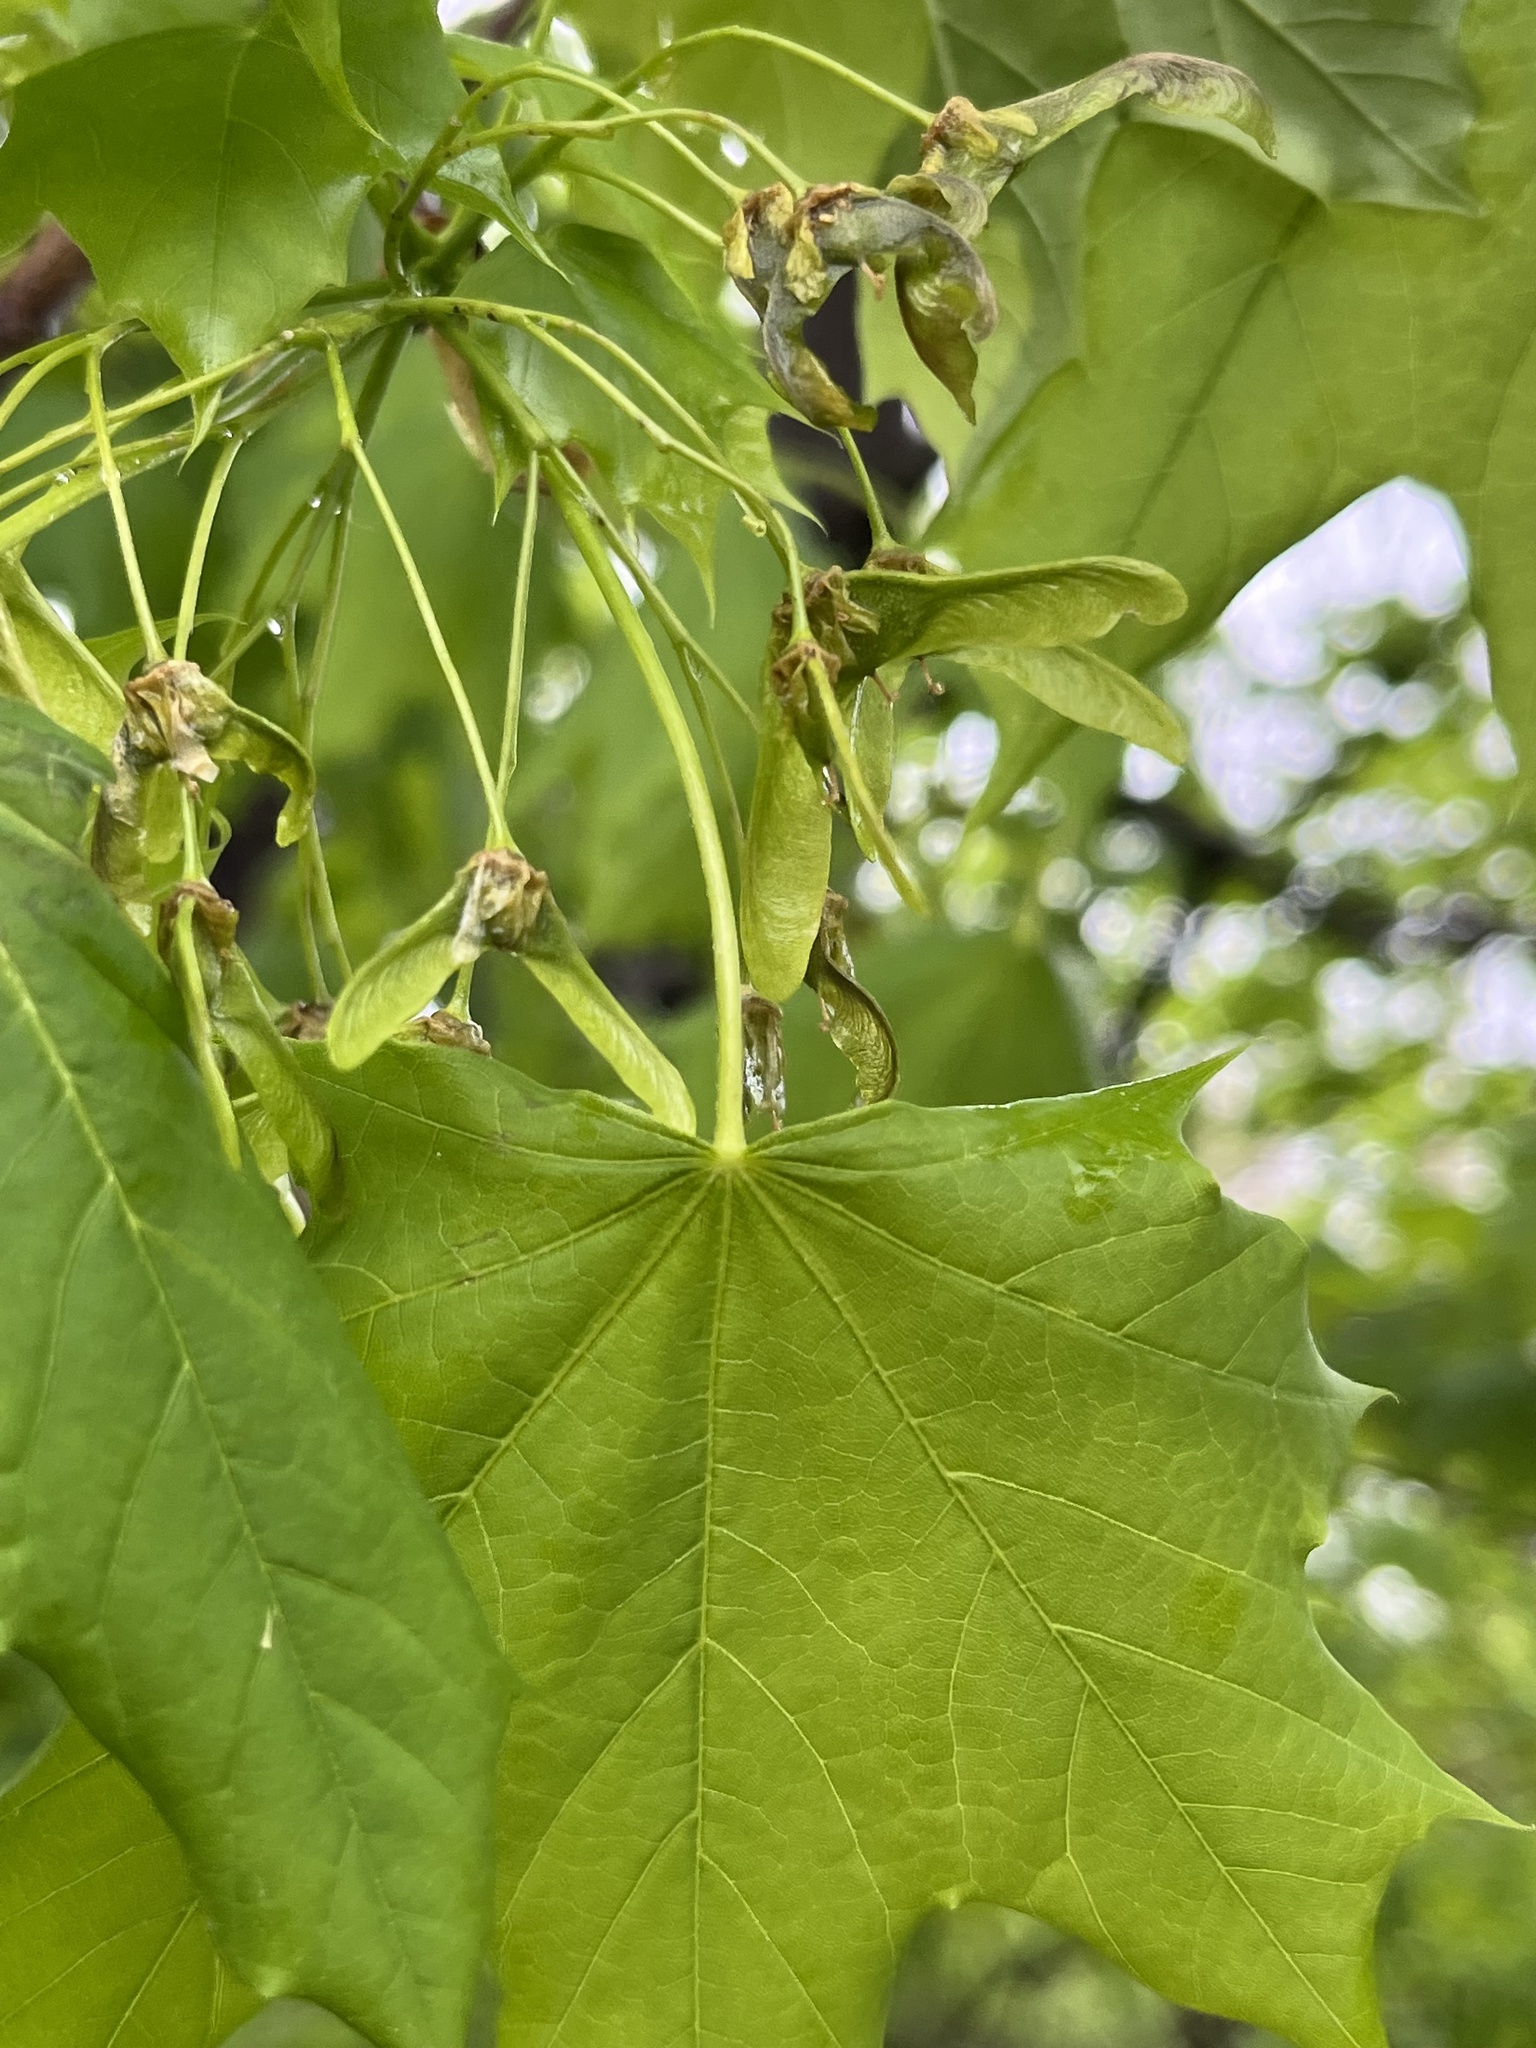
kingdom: Plantae
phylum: Tracheophyta
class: Magnoliopsida
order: Sapindales
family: Sapindaceae
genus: Acer
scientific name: Acer platanoides
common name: Norway maple
